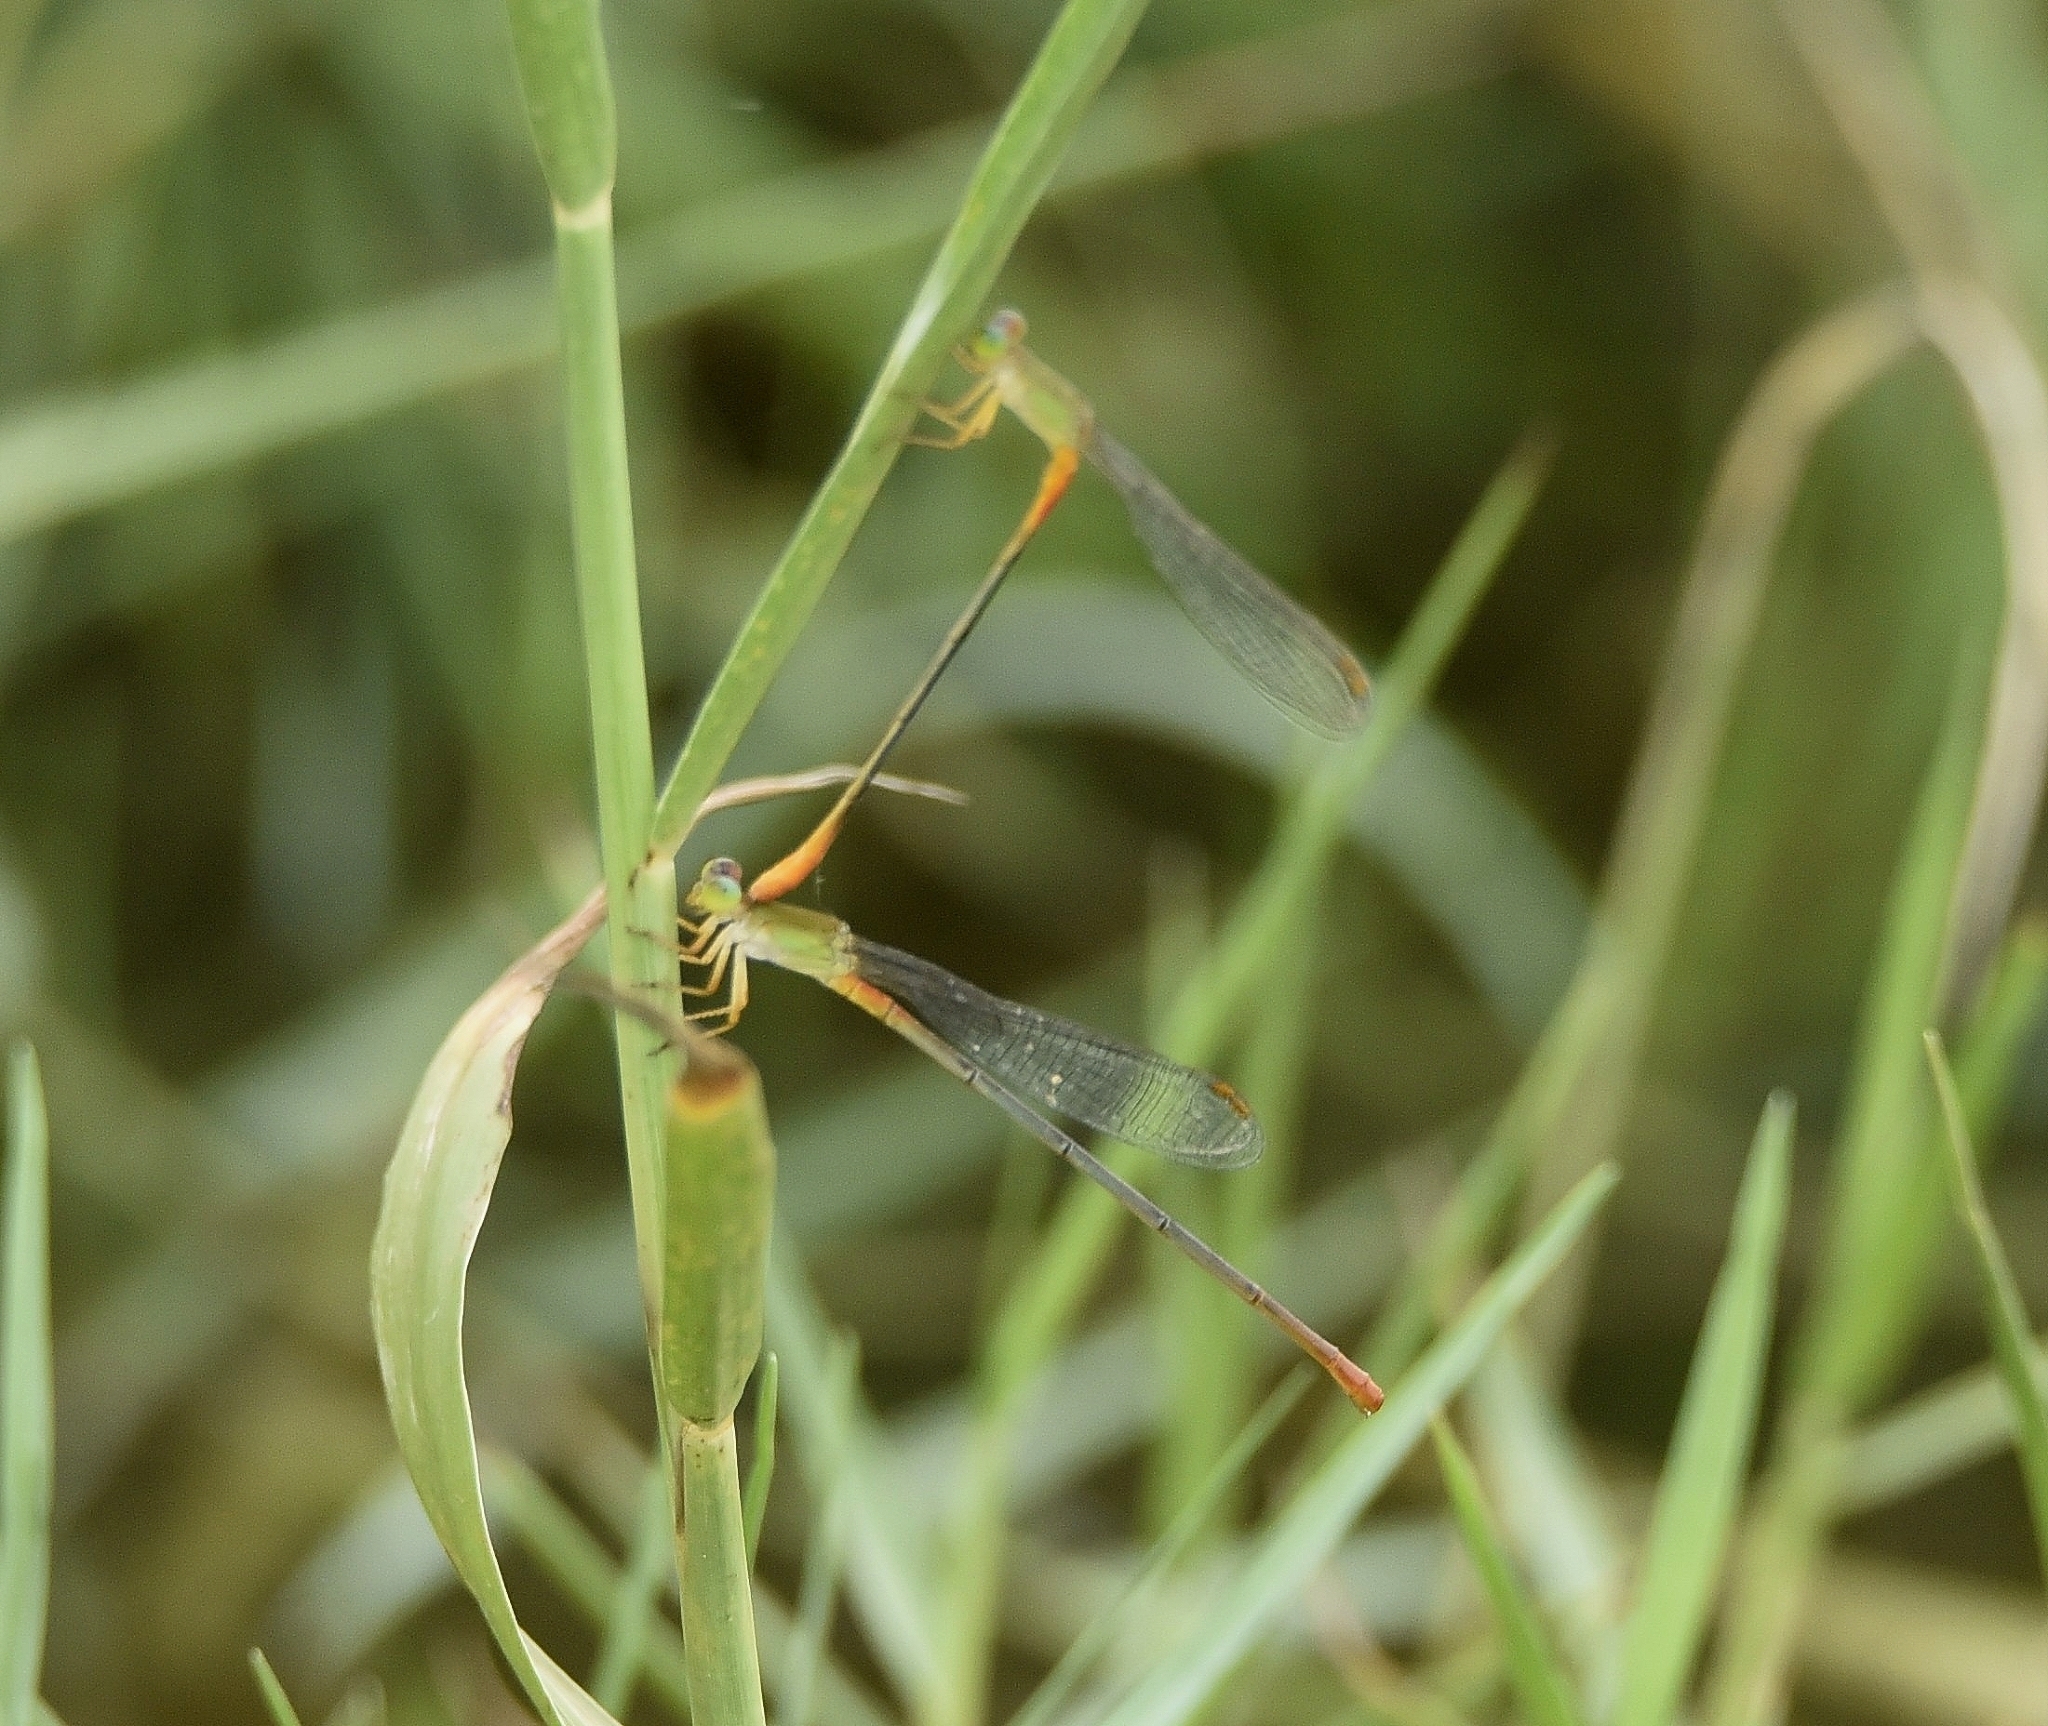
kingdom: Animalia
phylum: Arthropoda
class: Insecta
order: Odonata
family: Coenagrionidae
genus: Ceriagrion
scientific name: Ceriagrion cerinorubellum
